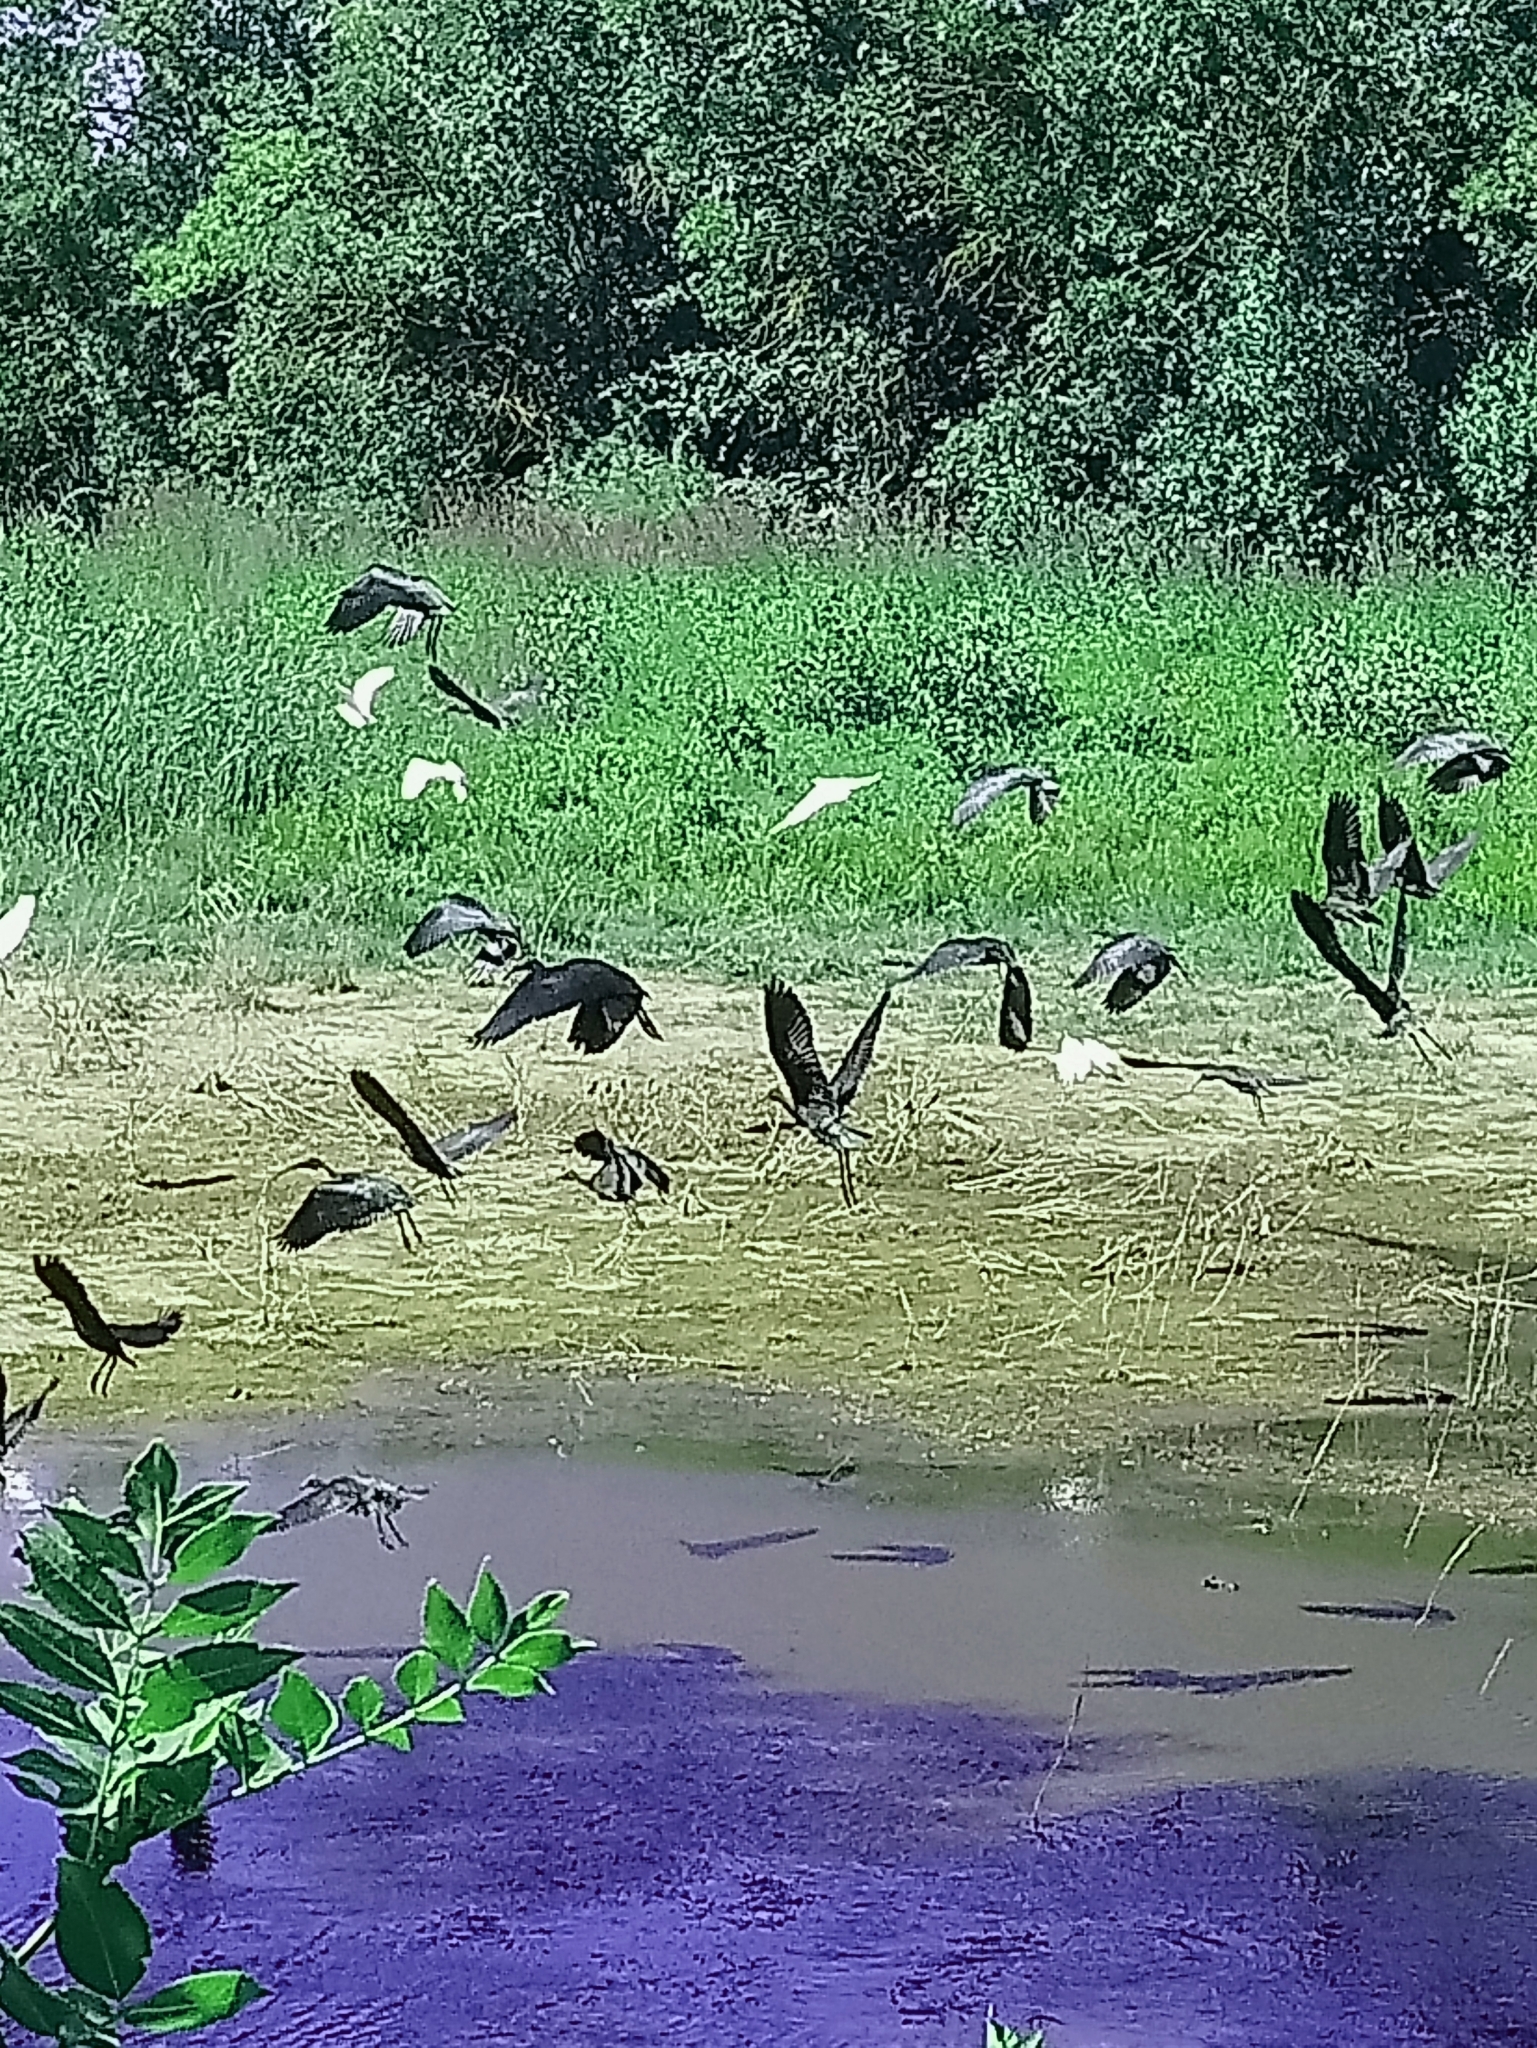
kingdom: Animalia
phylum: Chordata
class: Aves
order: Pelecaniformes
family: Threskiornithidae
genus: Plegadis
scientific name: Plegadis falcinellus
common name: Glossy ibis
